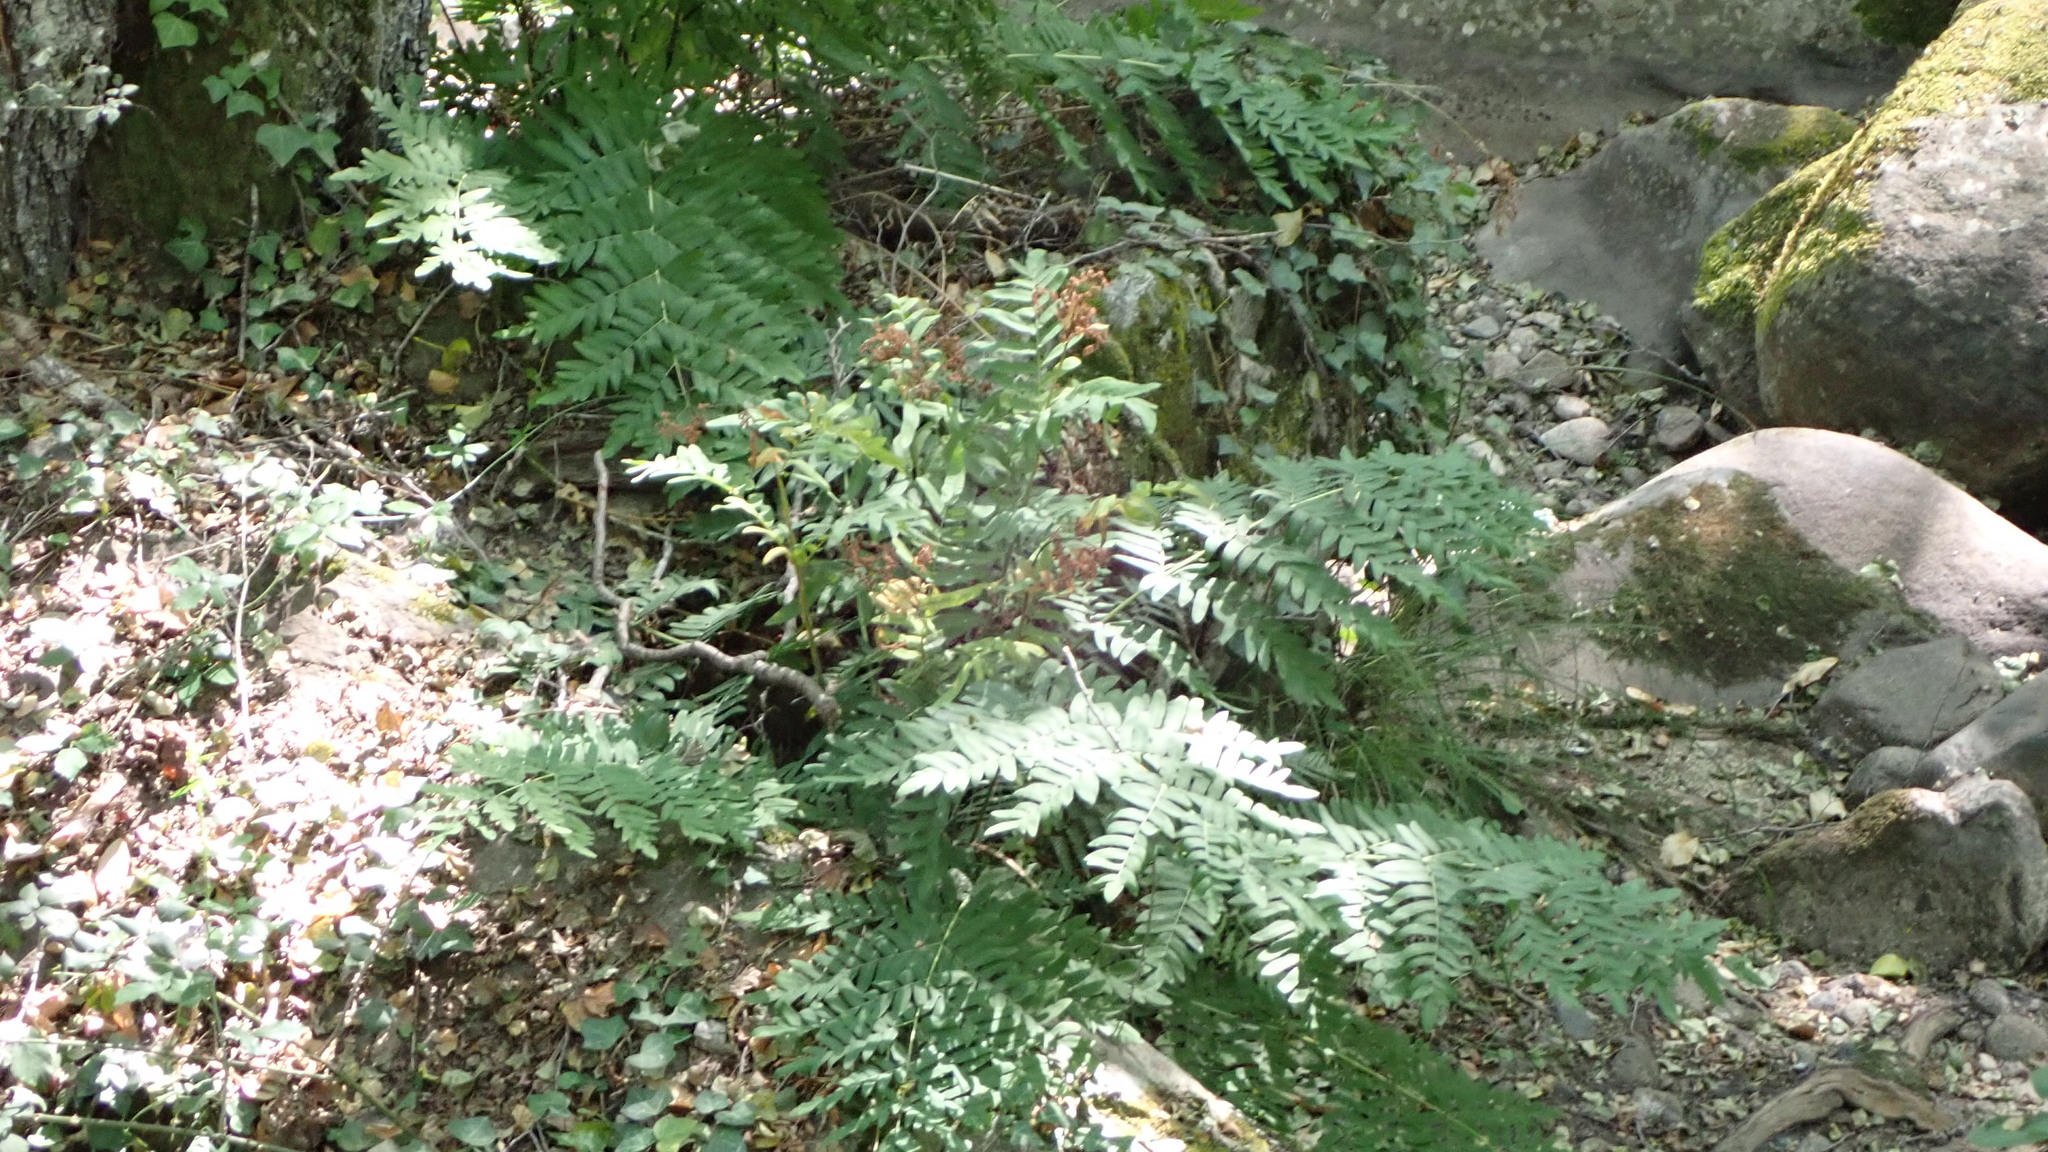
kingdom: Plantae
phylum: Tracheophyta
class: Polypodiopsida
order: Osmundales
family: Osmundaceae
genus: Osmunda
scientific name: Osmunda regalis
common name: Royal fern
